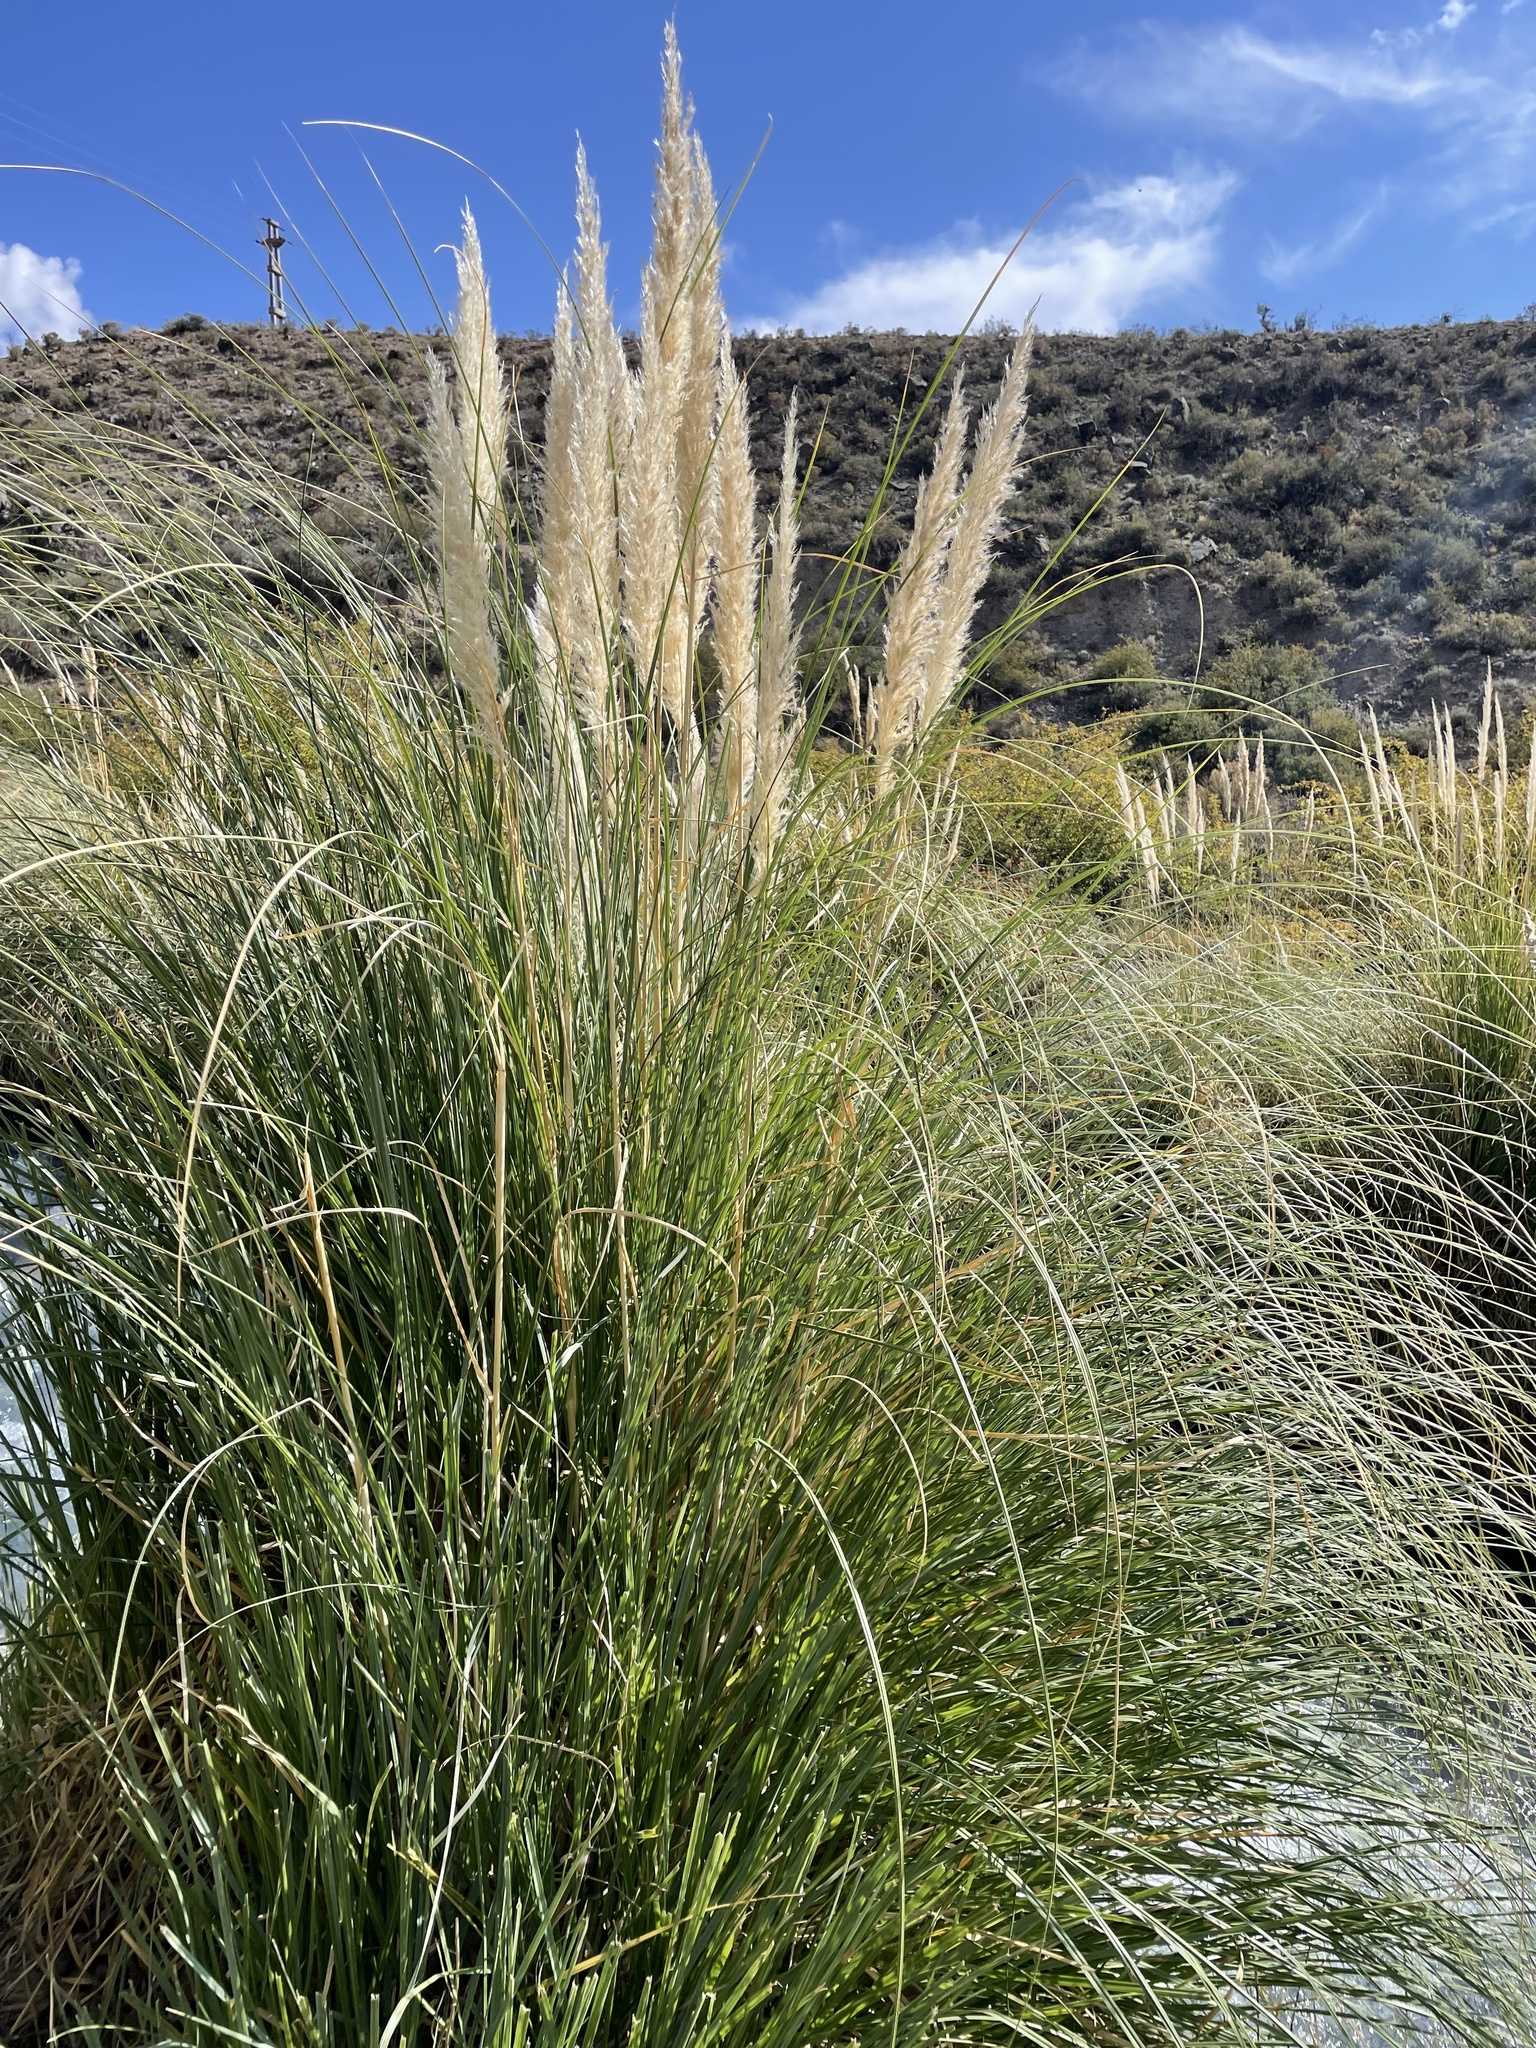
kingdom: Plantae
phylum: Tracheophyta
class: Liliopsida
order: Poales
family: Poaceae
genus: Cortaderia
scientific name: Cortaderia selloana
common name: Uruguayan pampas grass
